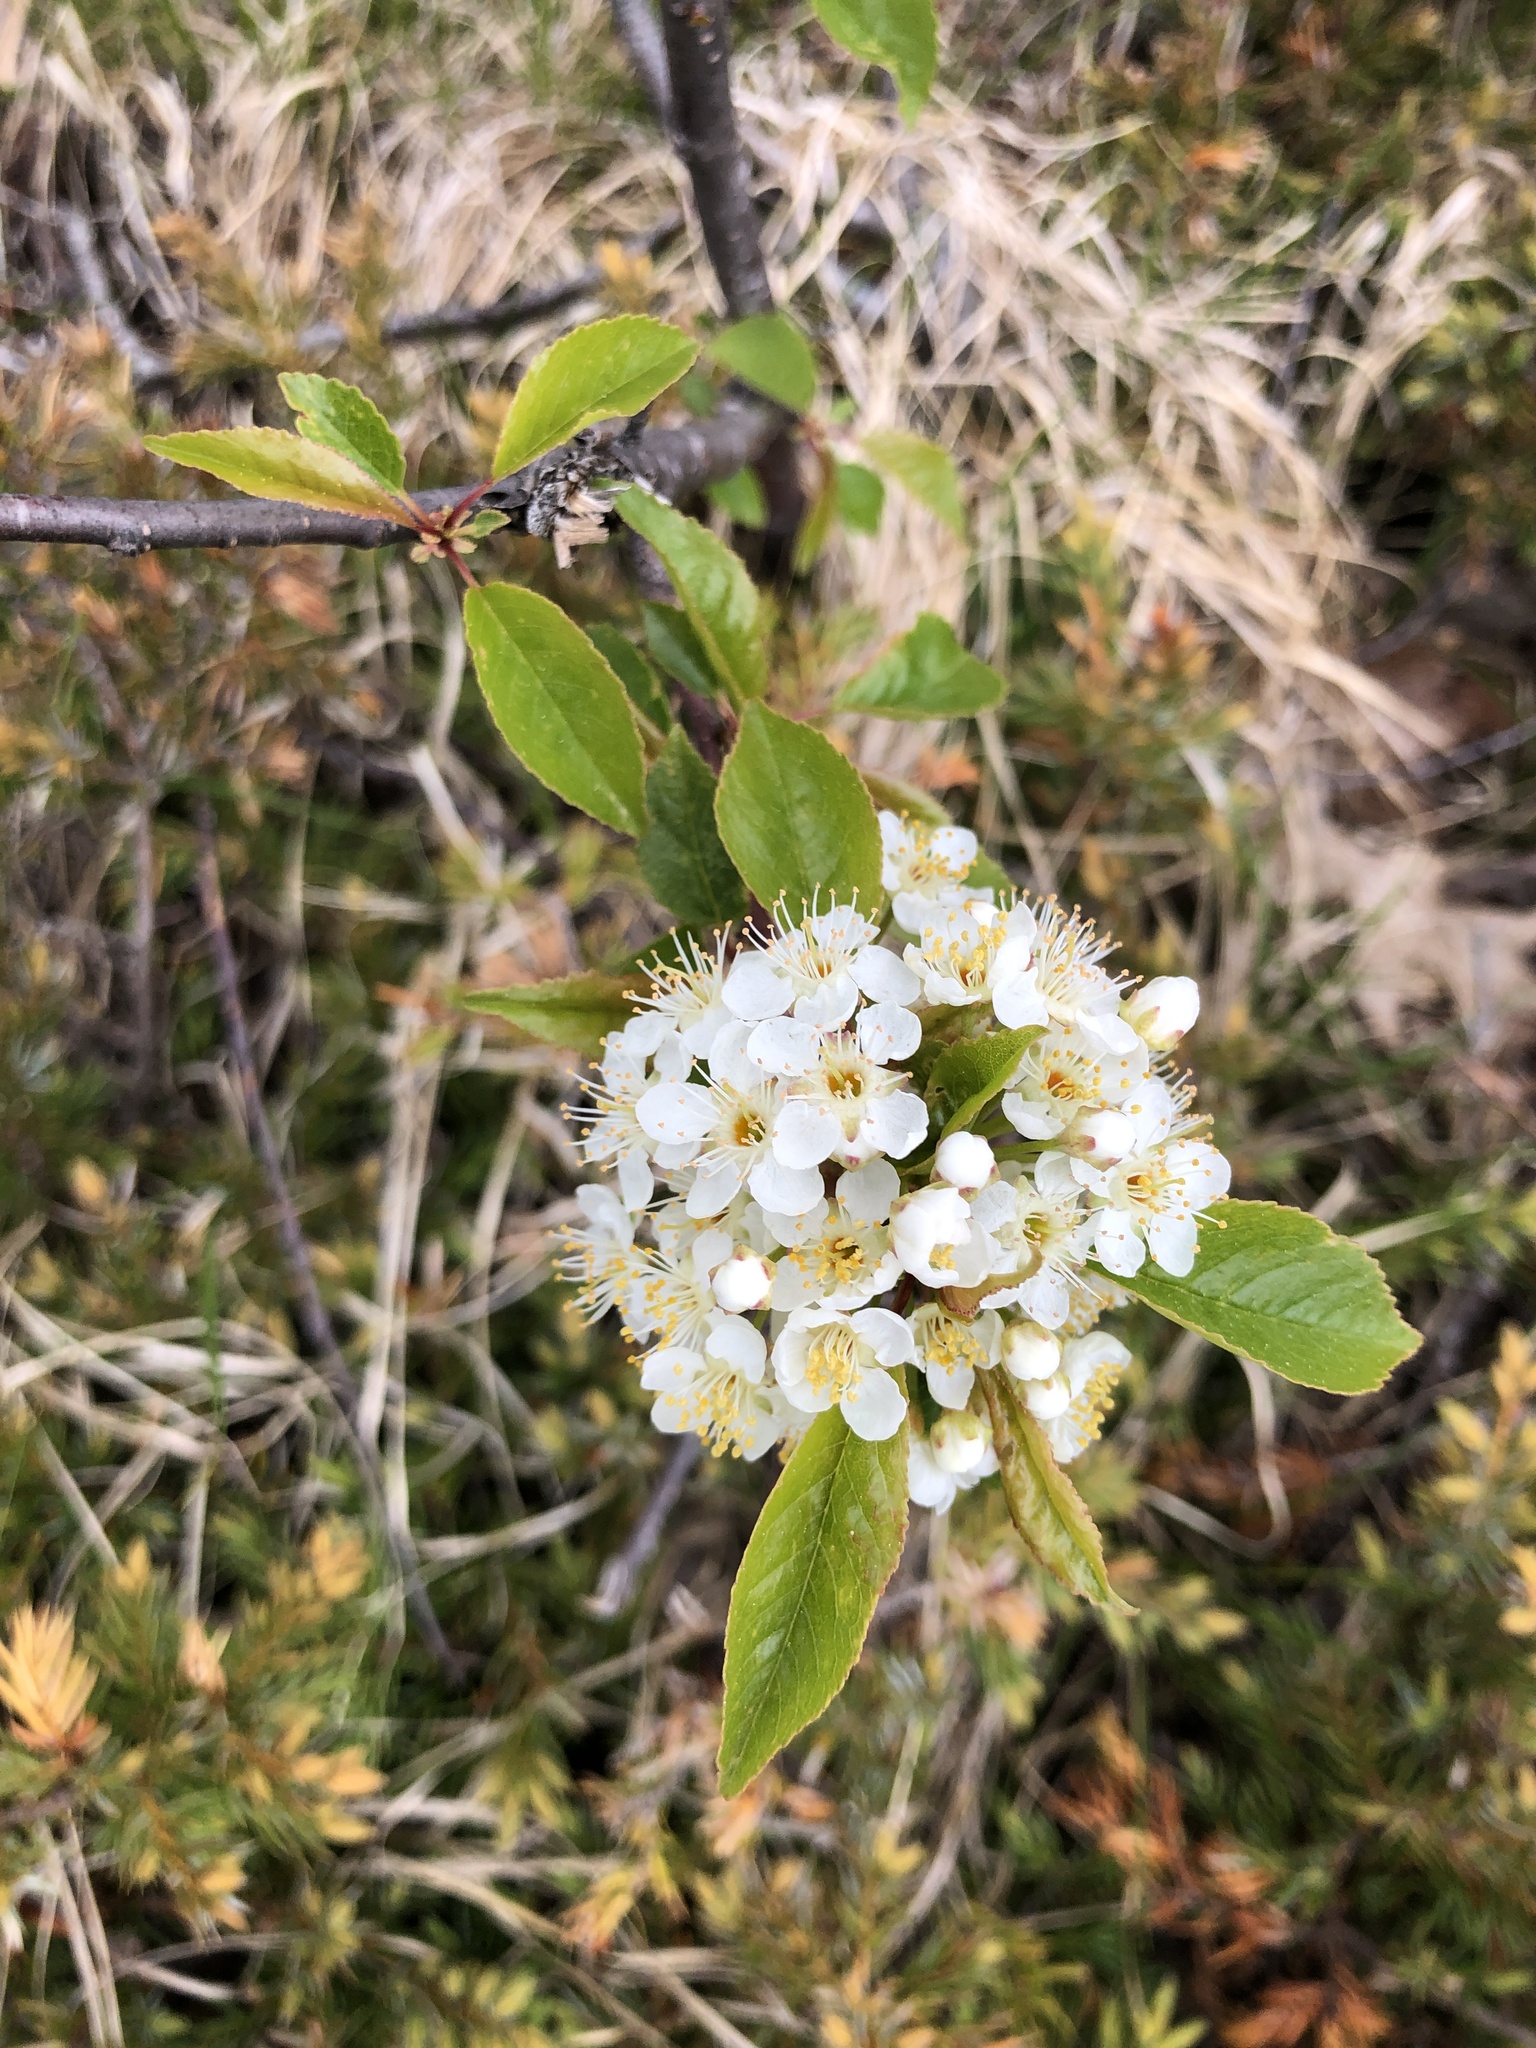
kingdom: Plantae
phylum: Tracheophyta
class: Magnoliopsida
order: Rosales
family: Rosaceae
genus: Prunus
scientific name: Prunus pensylvanica
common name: Pin cherry
